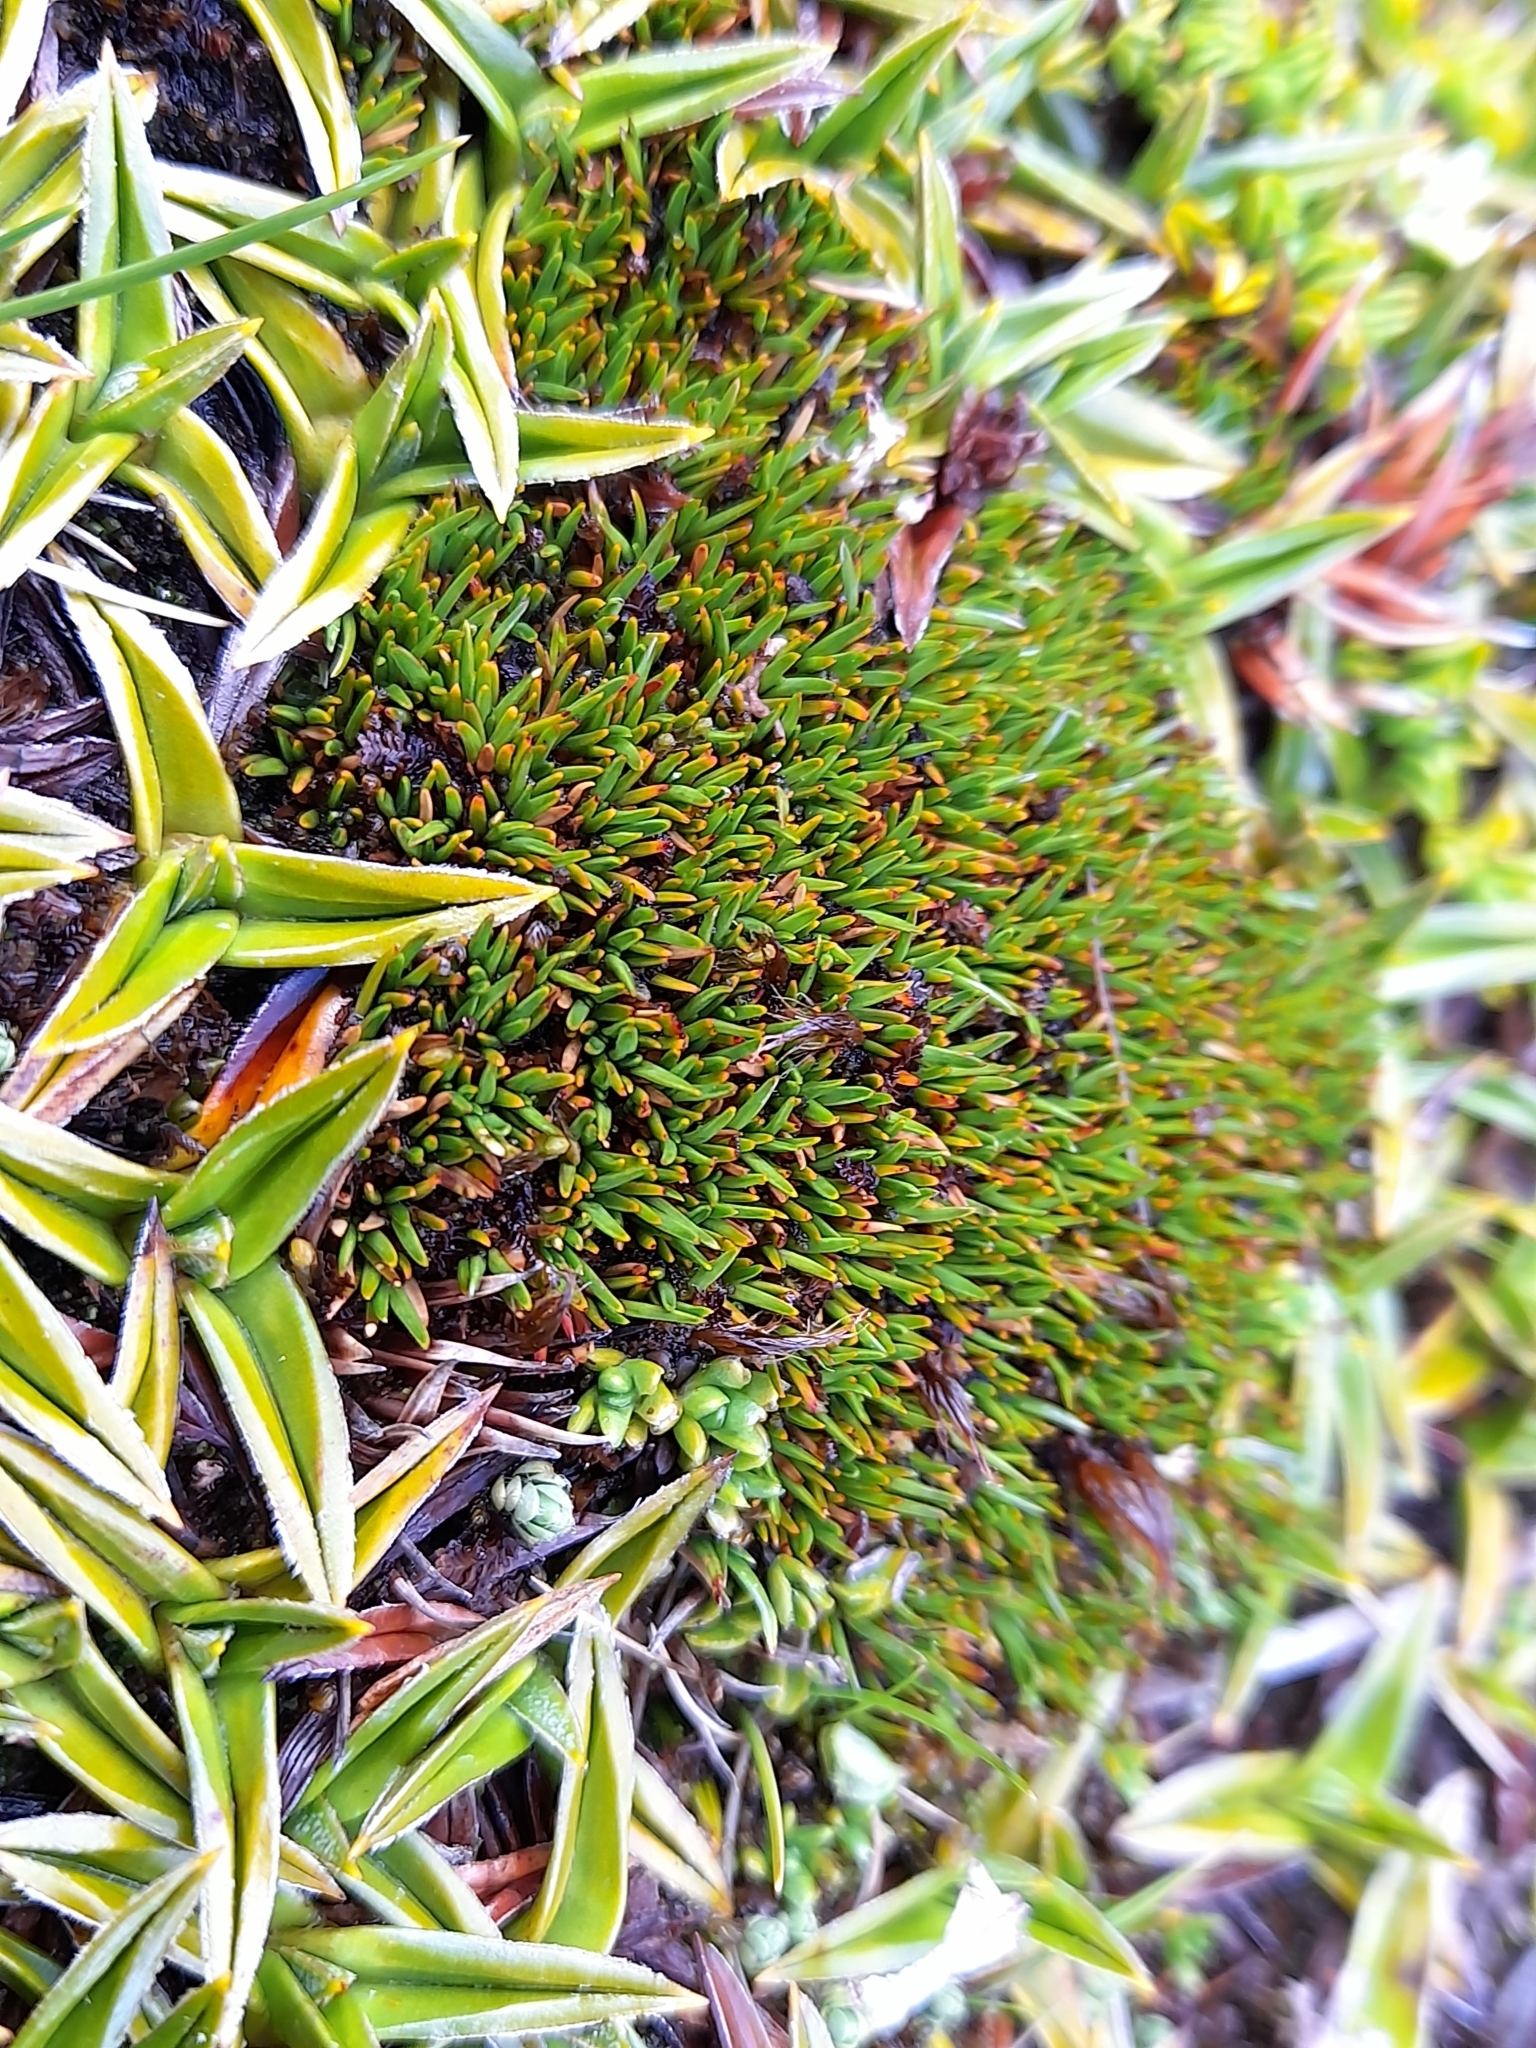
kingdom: Plantae
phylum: Tracheophyta
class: Liliopsida
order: Poales
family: Restionaceae
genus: Gaimardia
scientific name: Gaimardia australis
